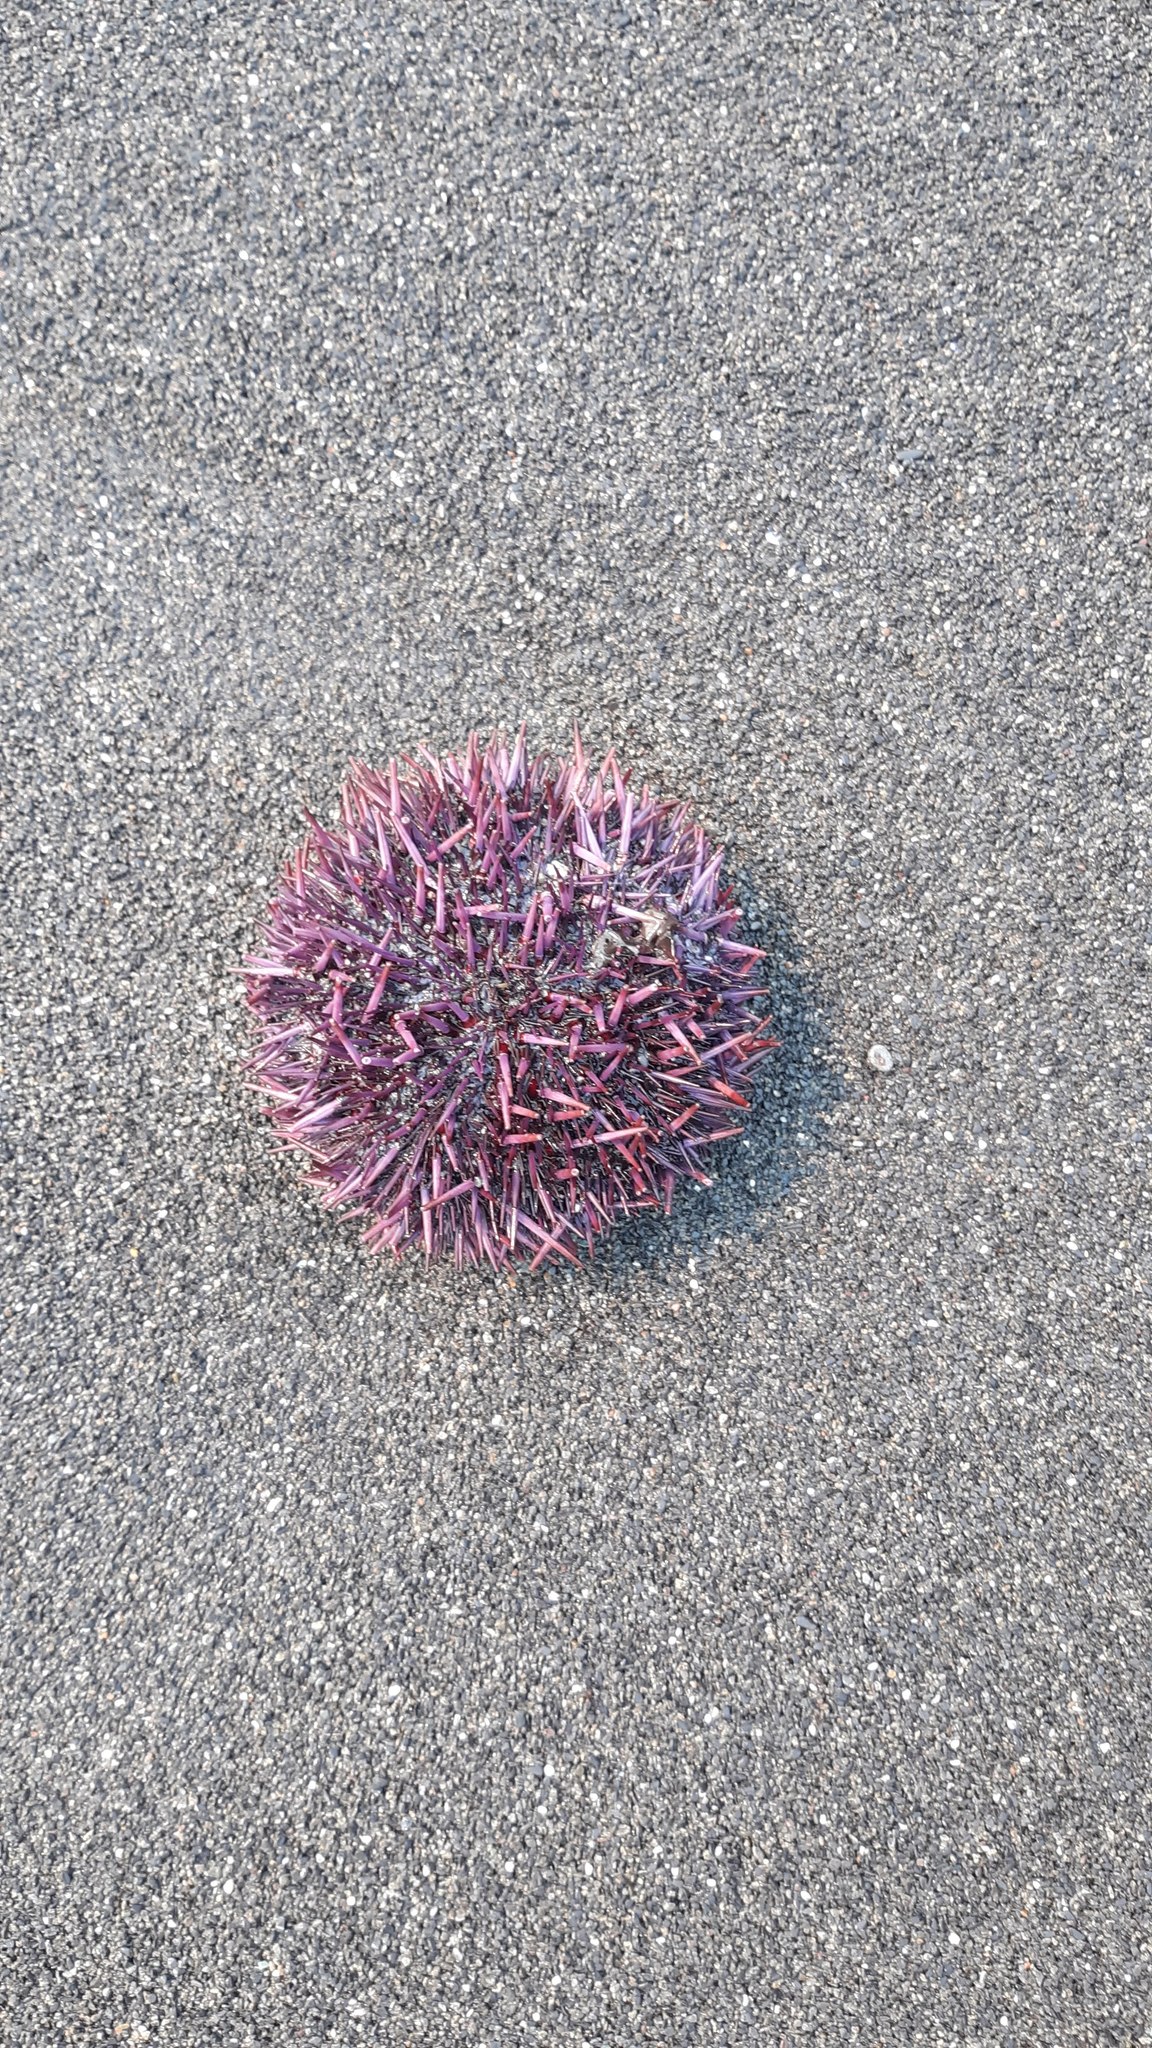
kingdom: Animalia
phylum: Echinodermata
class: Echinoidea
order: Camarodonta
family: Strongylocentrotidae
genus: Strongylocentrotus
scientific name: Strongylocentrotus purpuratus
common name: Purple sea urchin
